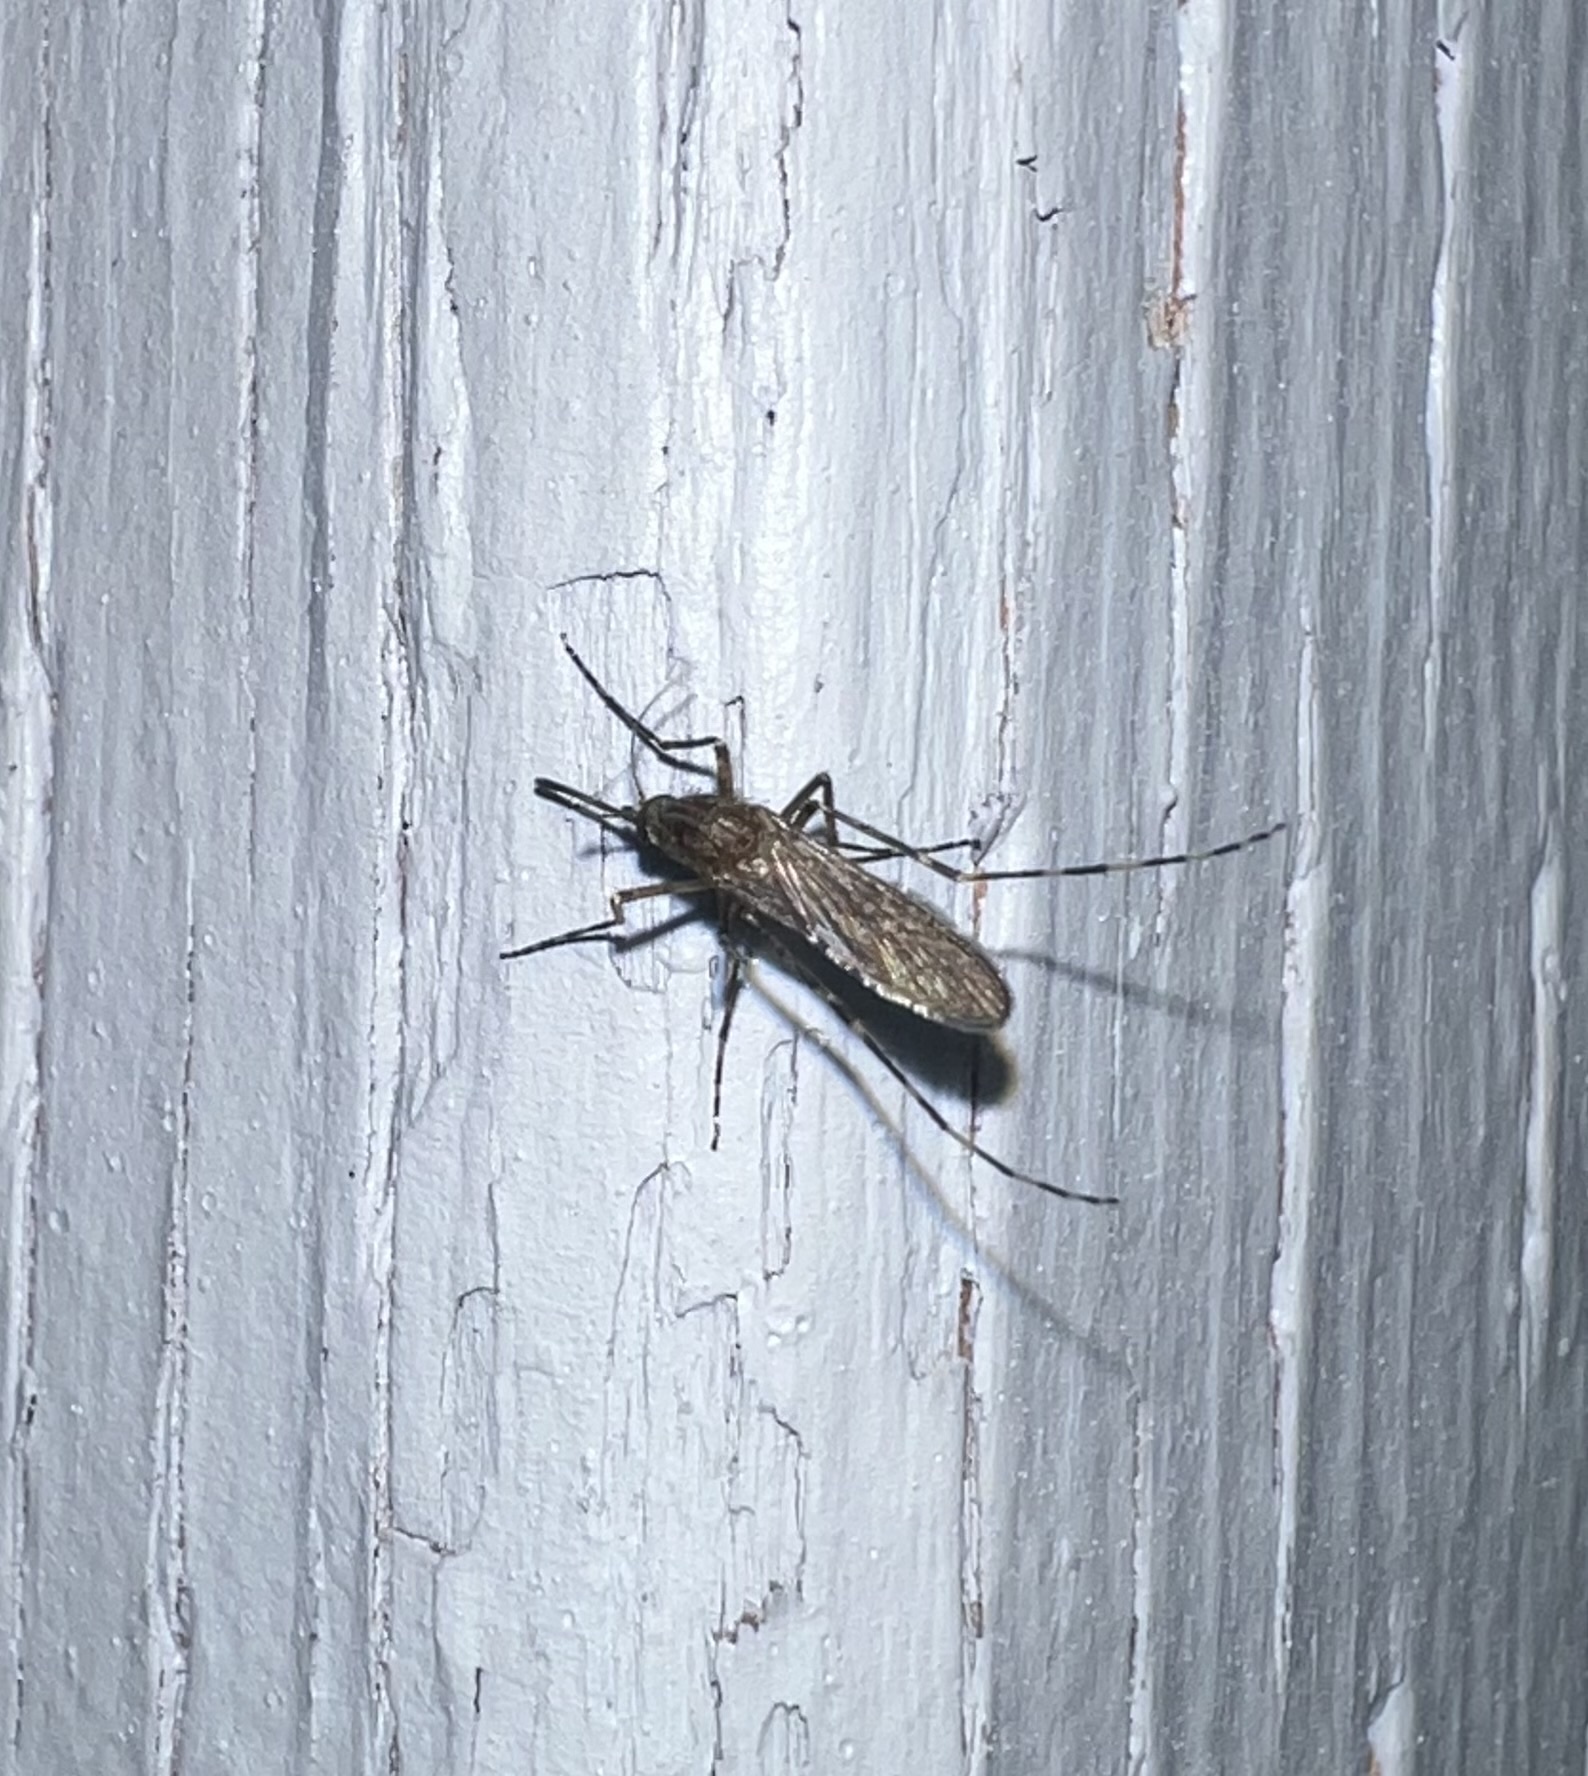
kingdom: Animalia
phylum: Arthropoda
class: Insecta
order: Diptera
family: Culicidae
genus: Coquillettidia
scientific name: Coquillettidia perturbans
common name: Cattail mosquito
